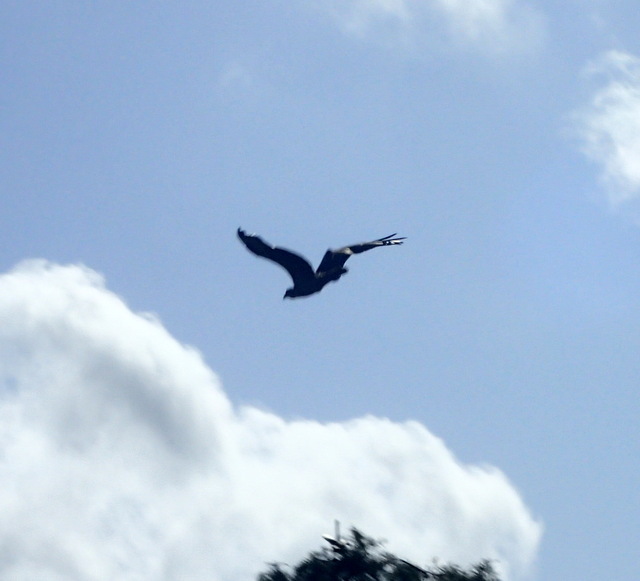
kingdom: Animalia
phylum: Chordata
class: Aves
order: Accipitriformes
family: Pandionidae
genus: Pandion
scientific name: Pandion haliaetus
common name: Osprey
